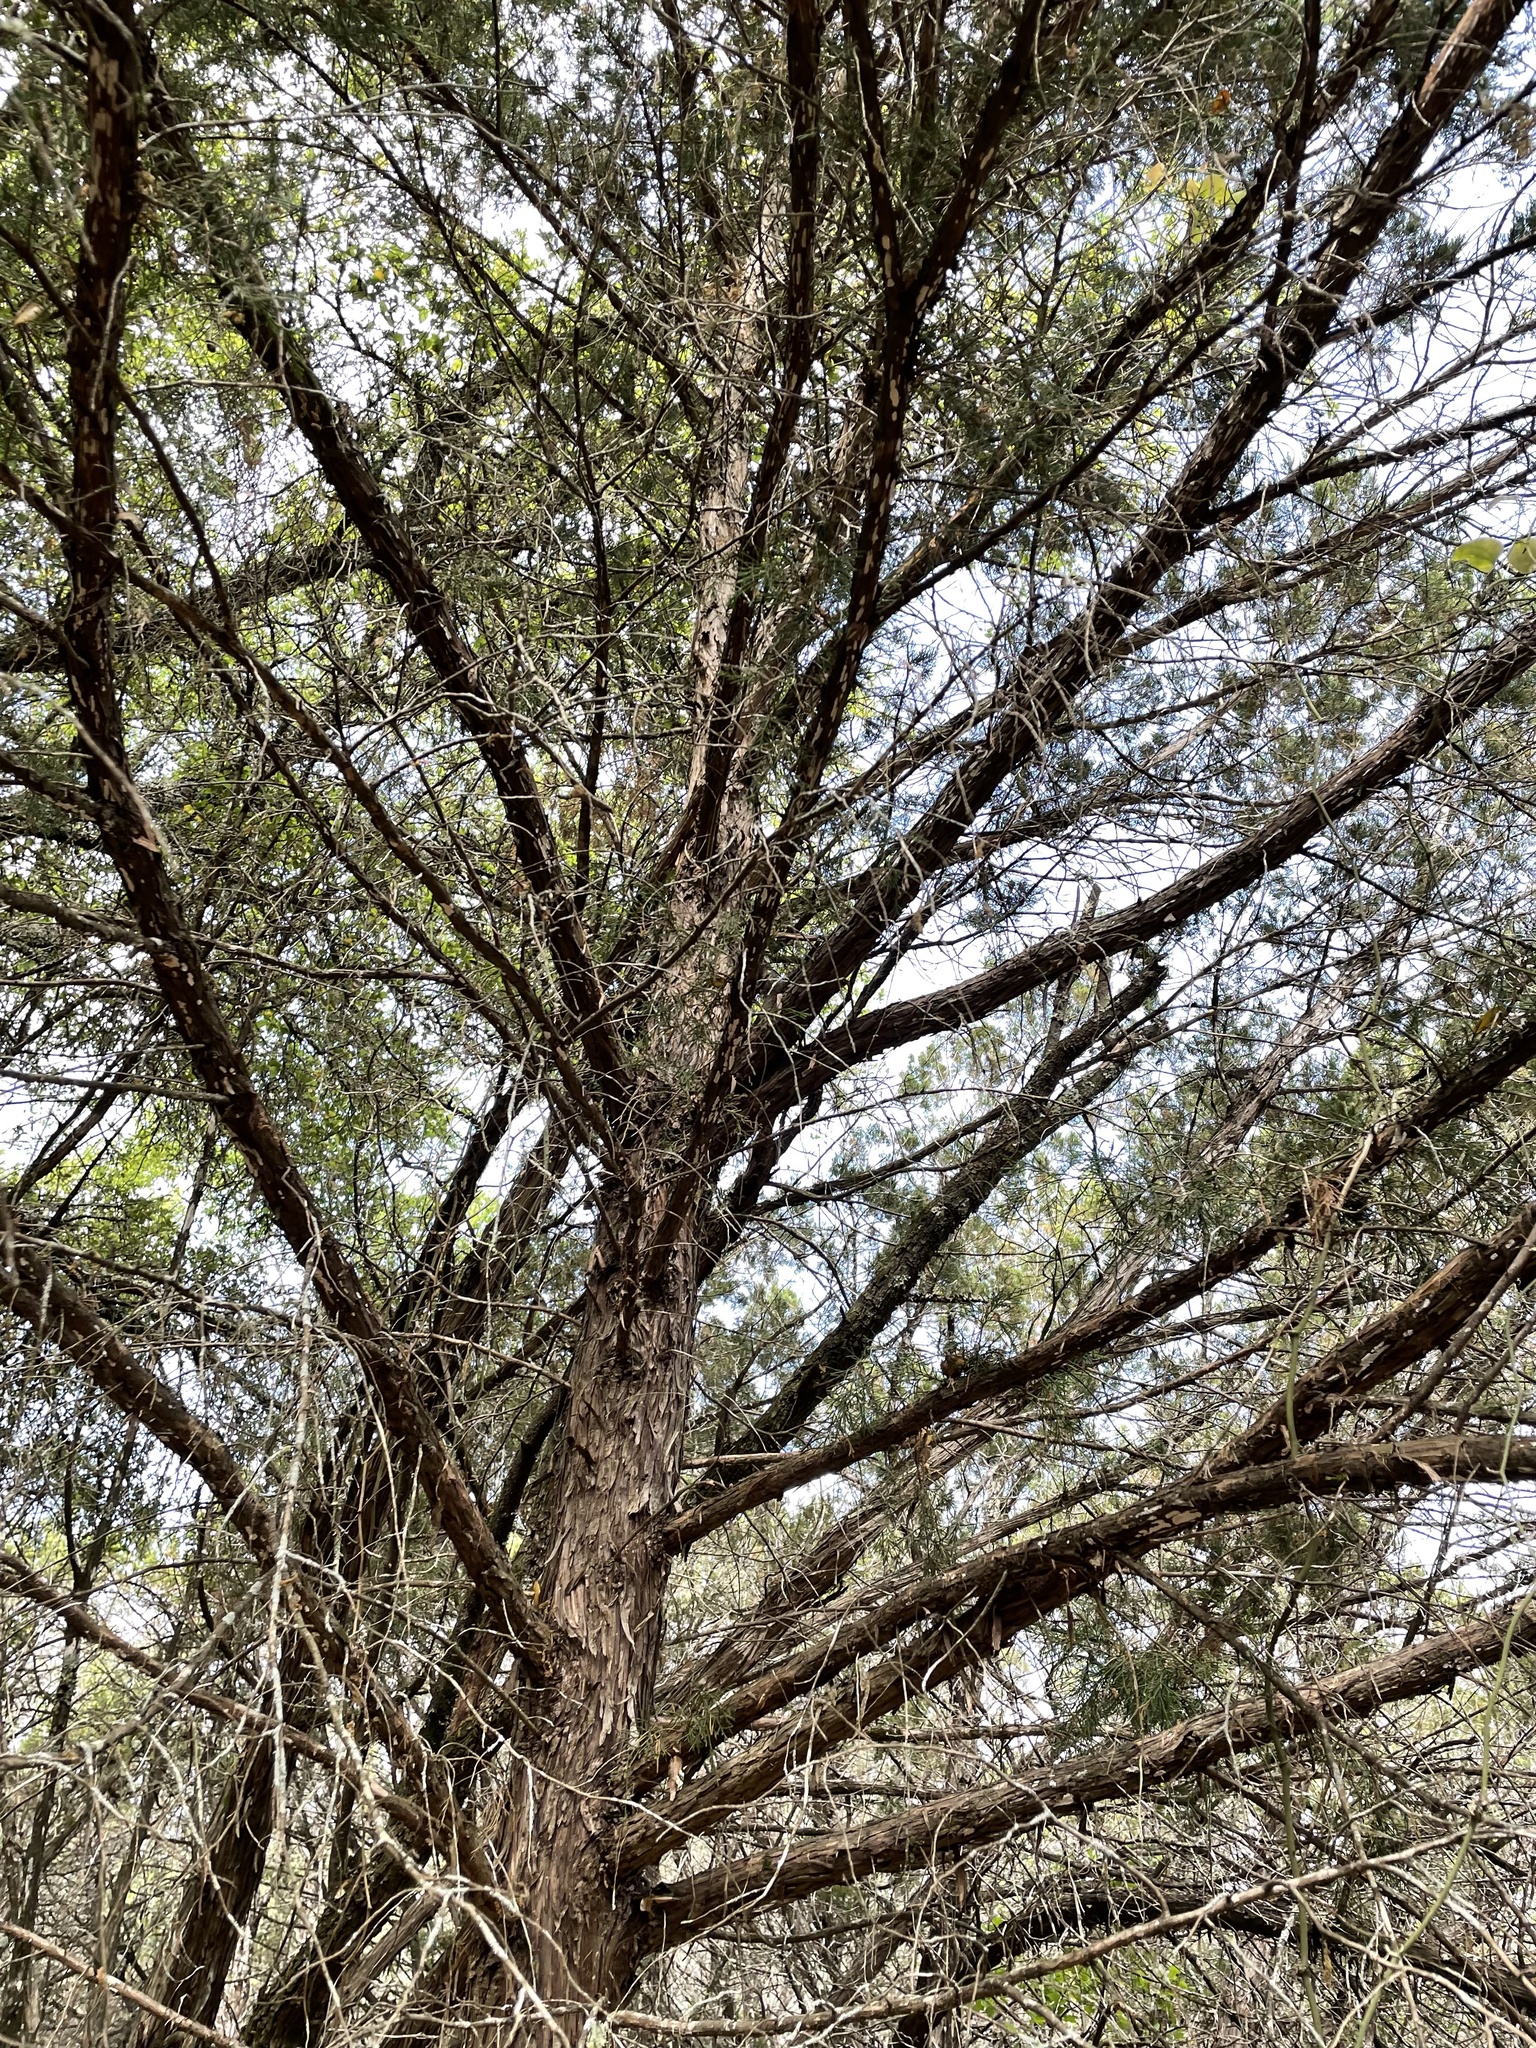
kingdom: Plantae
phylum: Tracheophyta
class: Pinopsida
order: Pinales
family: Cupressaceae
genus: Juniperus
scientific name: Juniperus virginiana
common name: Red juniper
